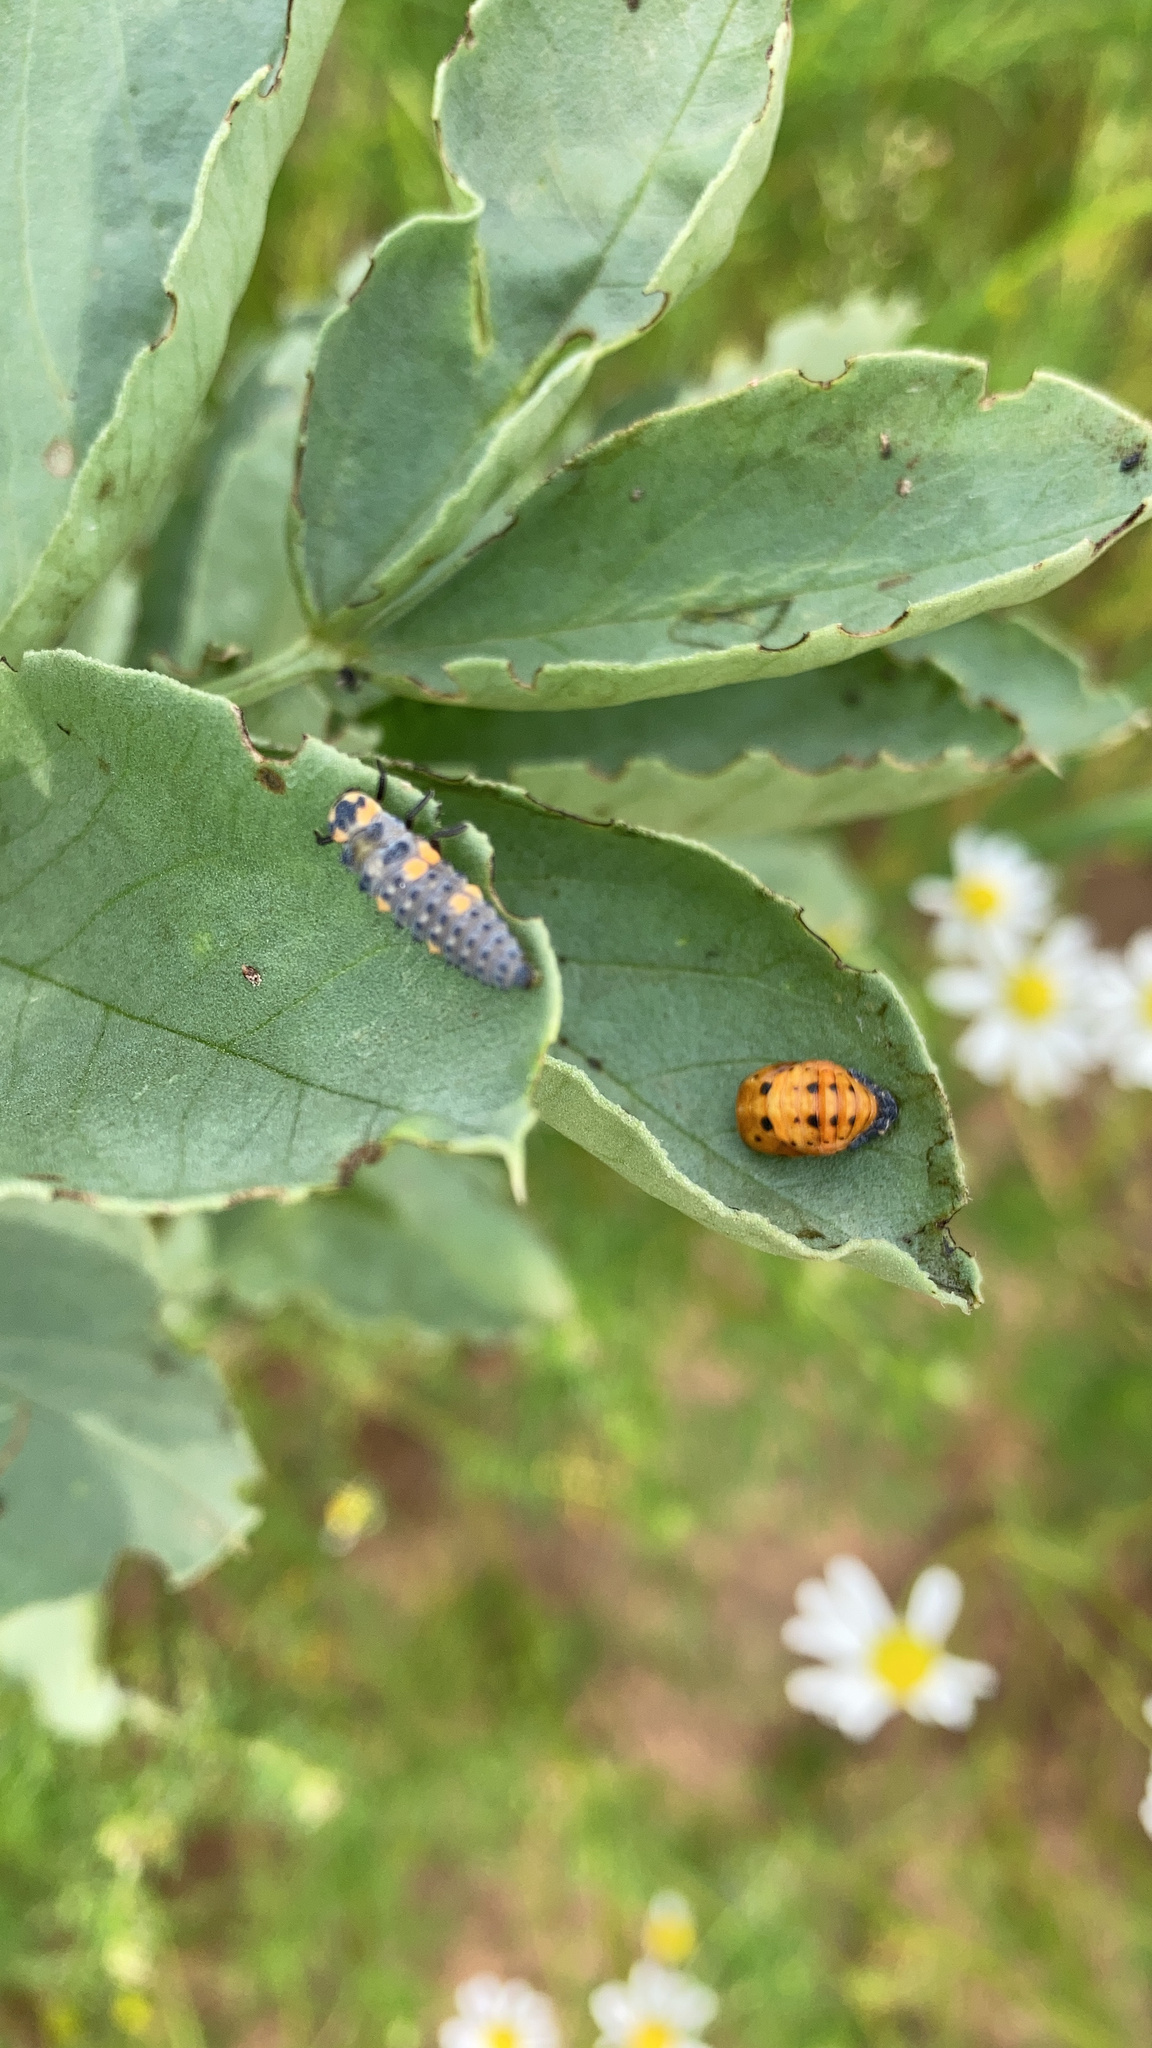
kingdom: Animalia
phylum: Arthropoda
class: Insecta
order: Coleoptera
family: Coccinellidae
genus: Coccinella
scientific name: Coccinella septempunctata
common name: Sevenspotted lady beetle
